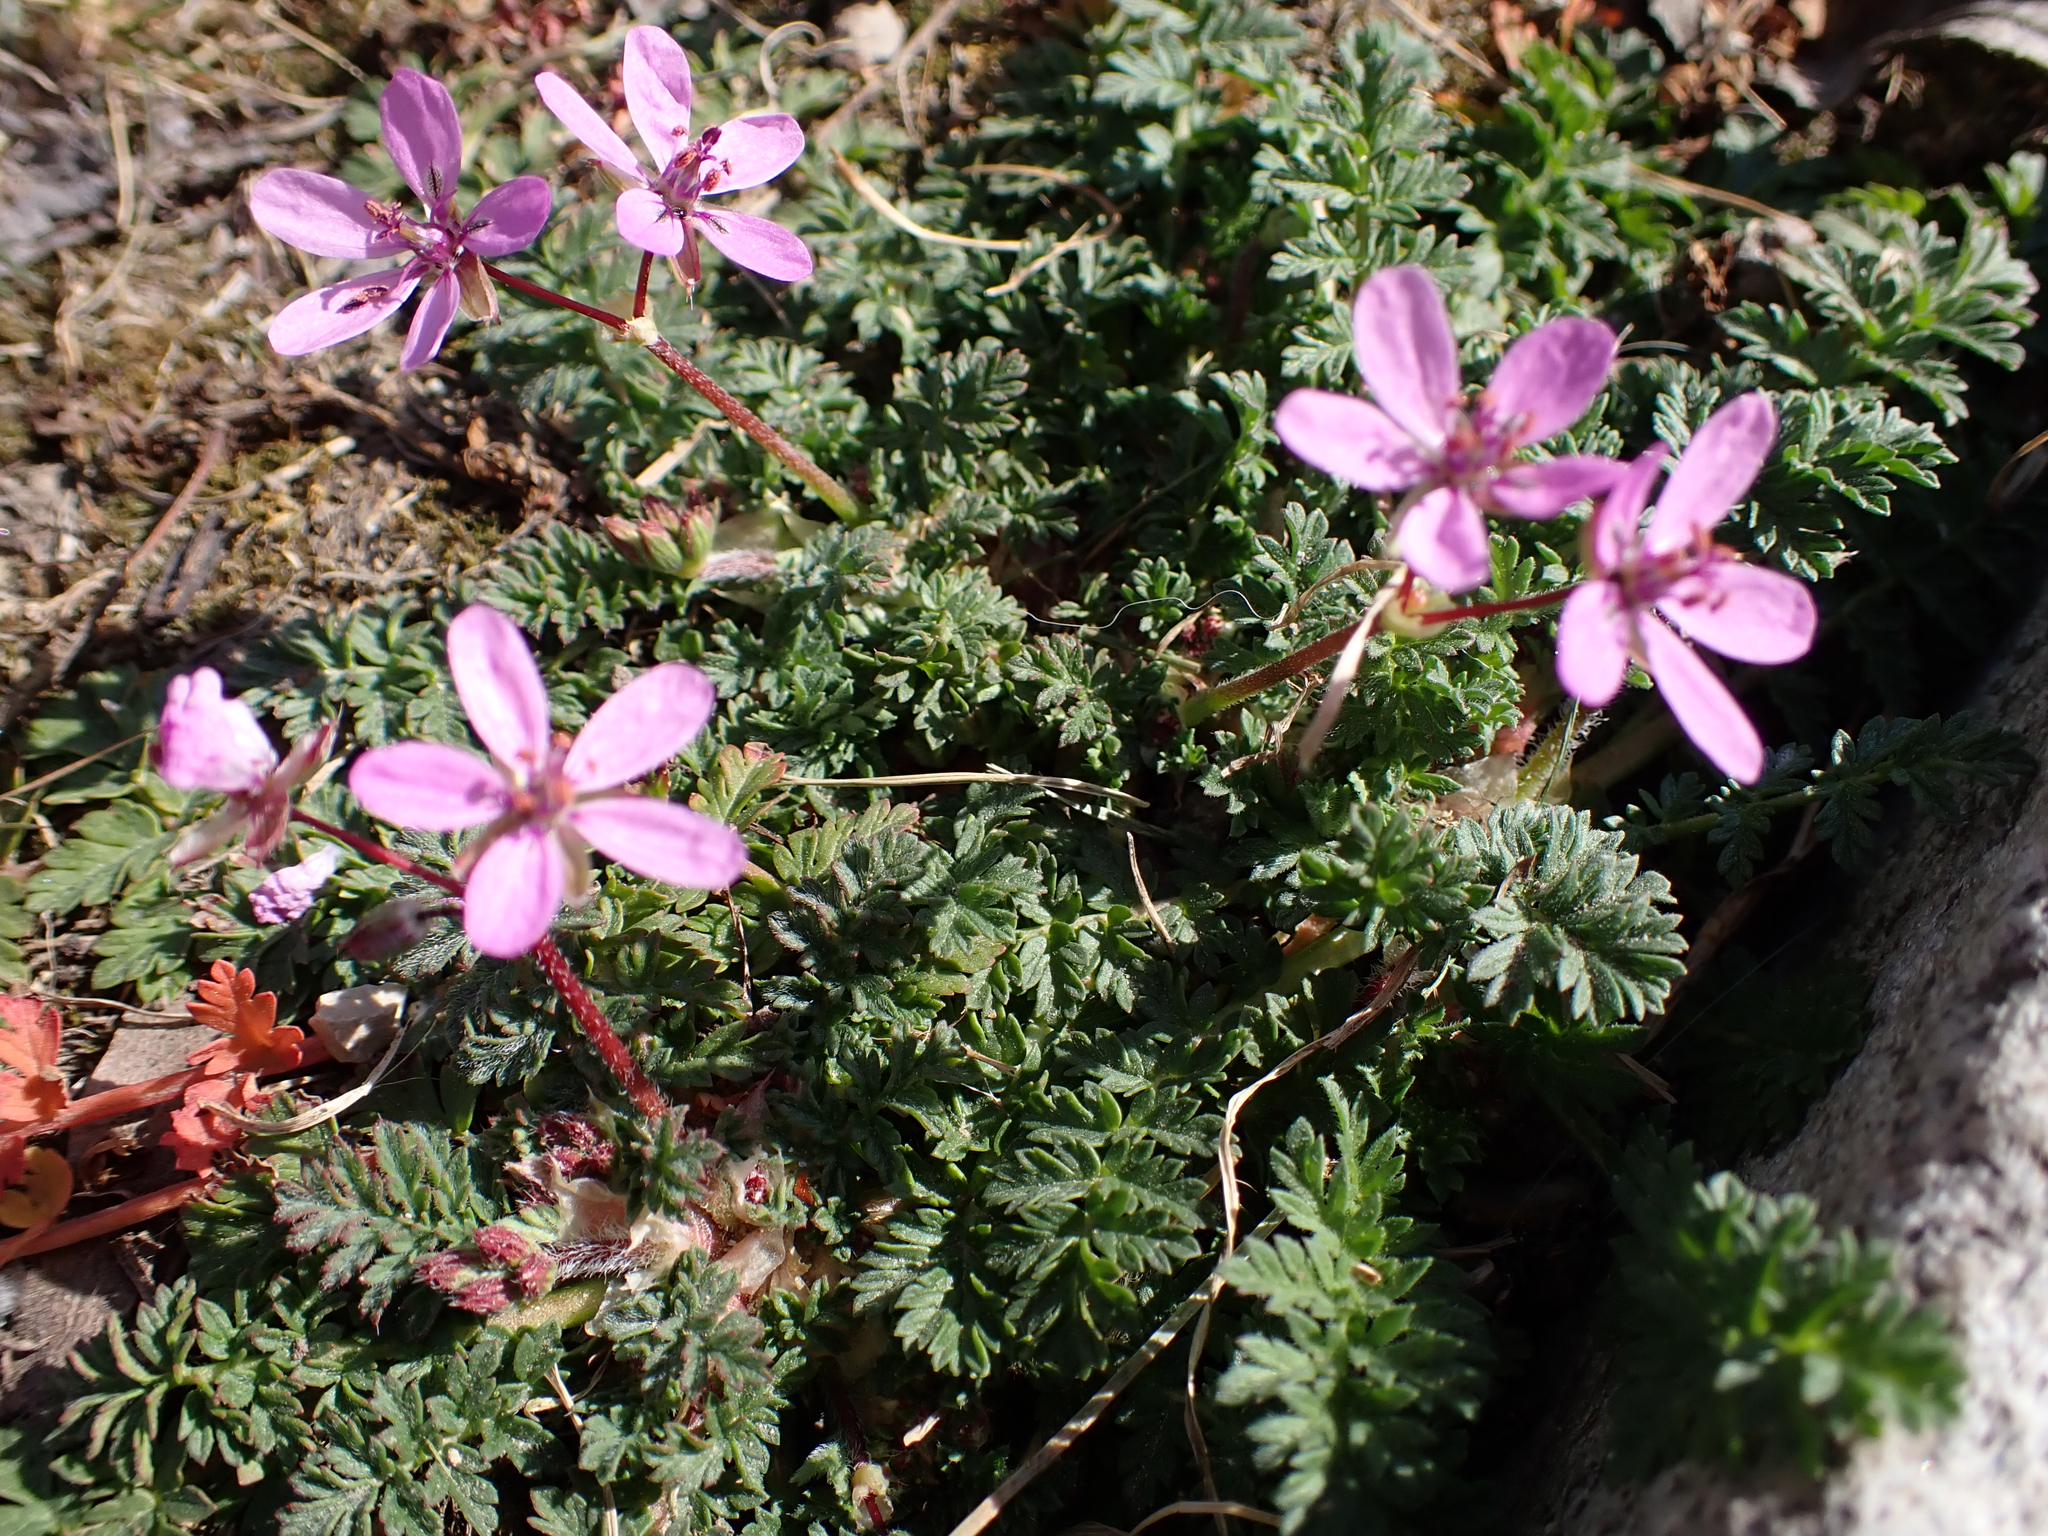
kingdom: Plantae
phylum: Tracheophyta
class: Magnoliopsida
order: Geraniales
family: Geraniaceae
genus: Erodium
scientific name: Erodium cicutarium
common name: Common stork's-bill
